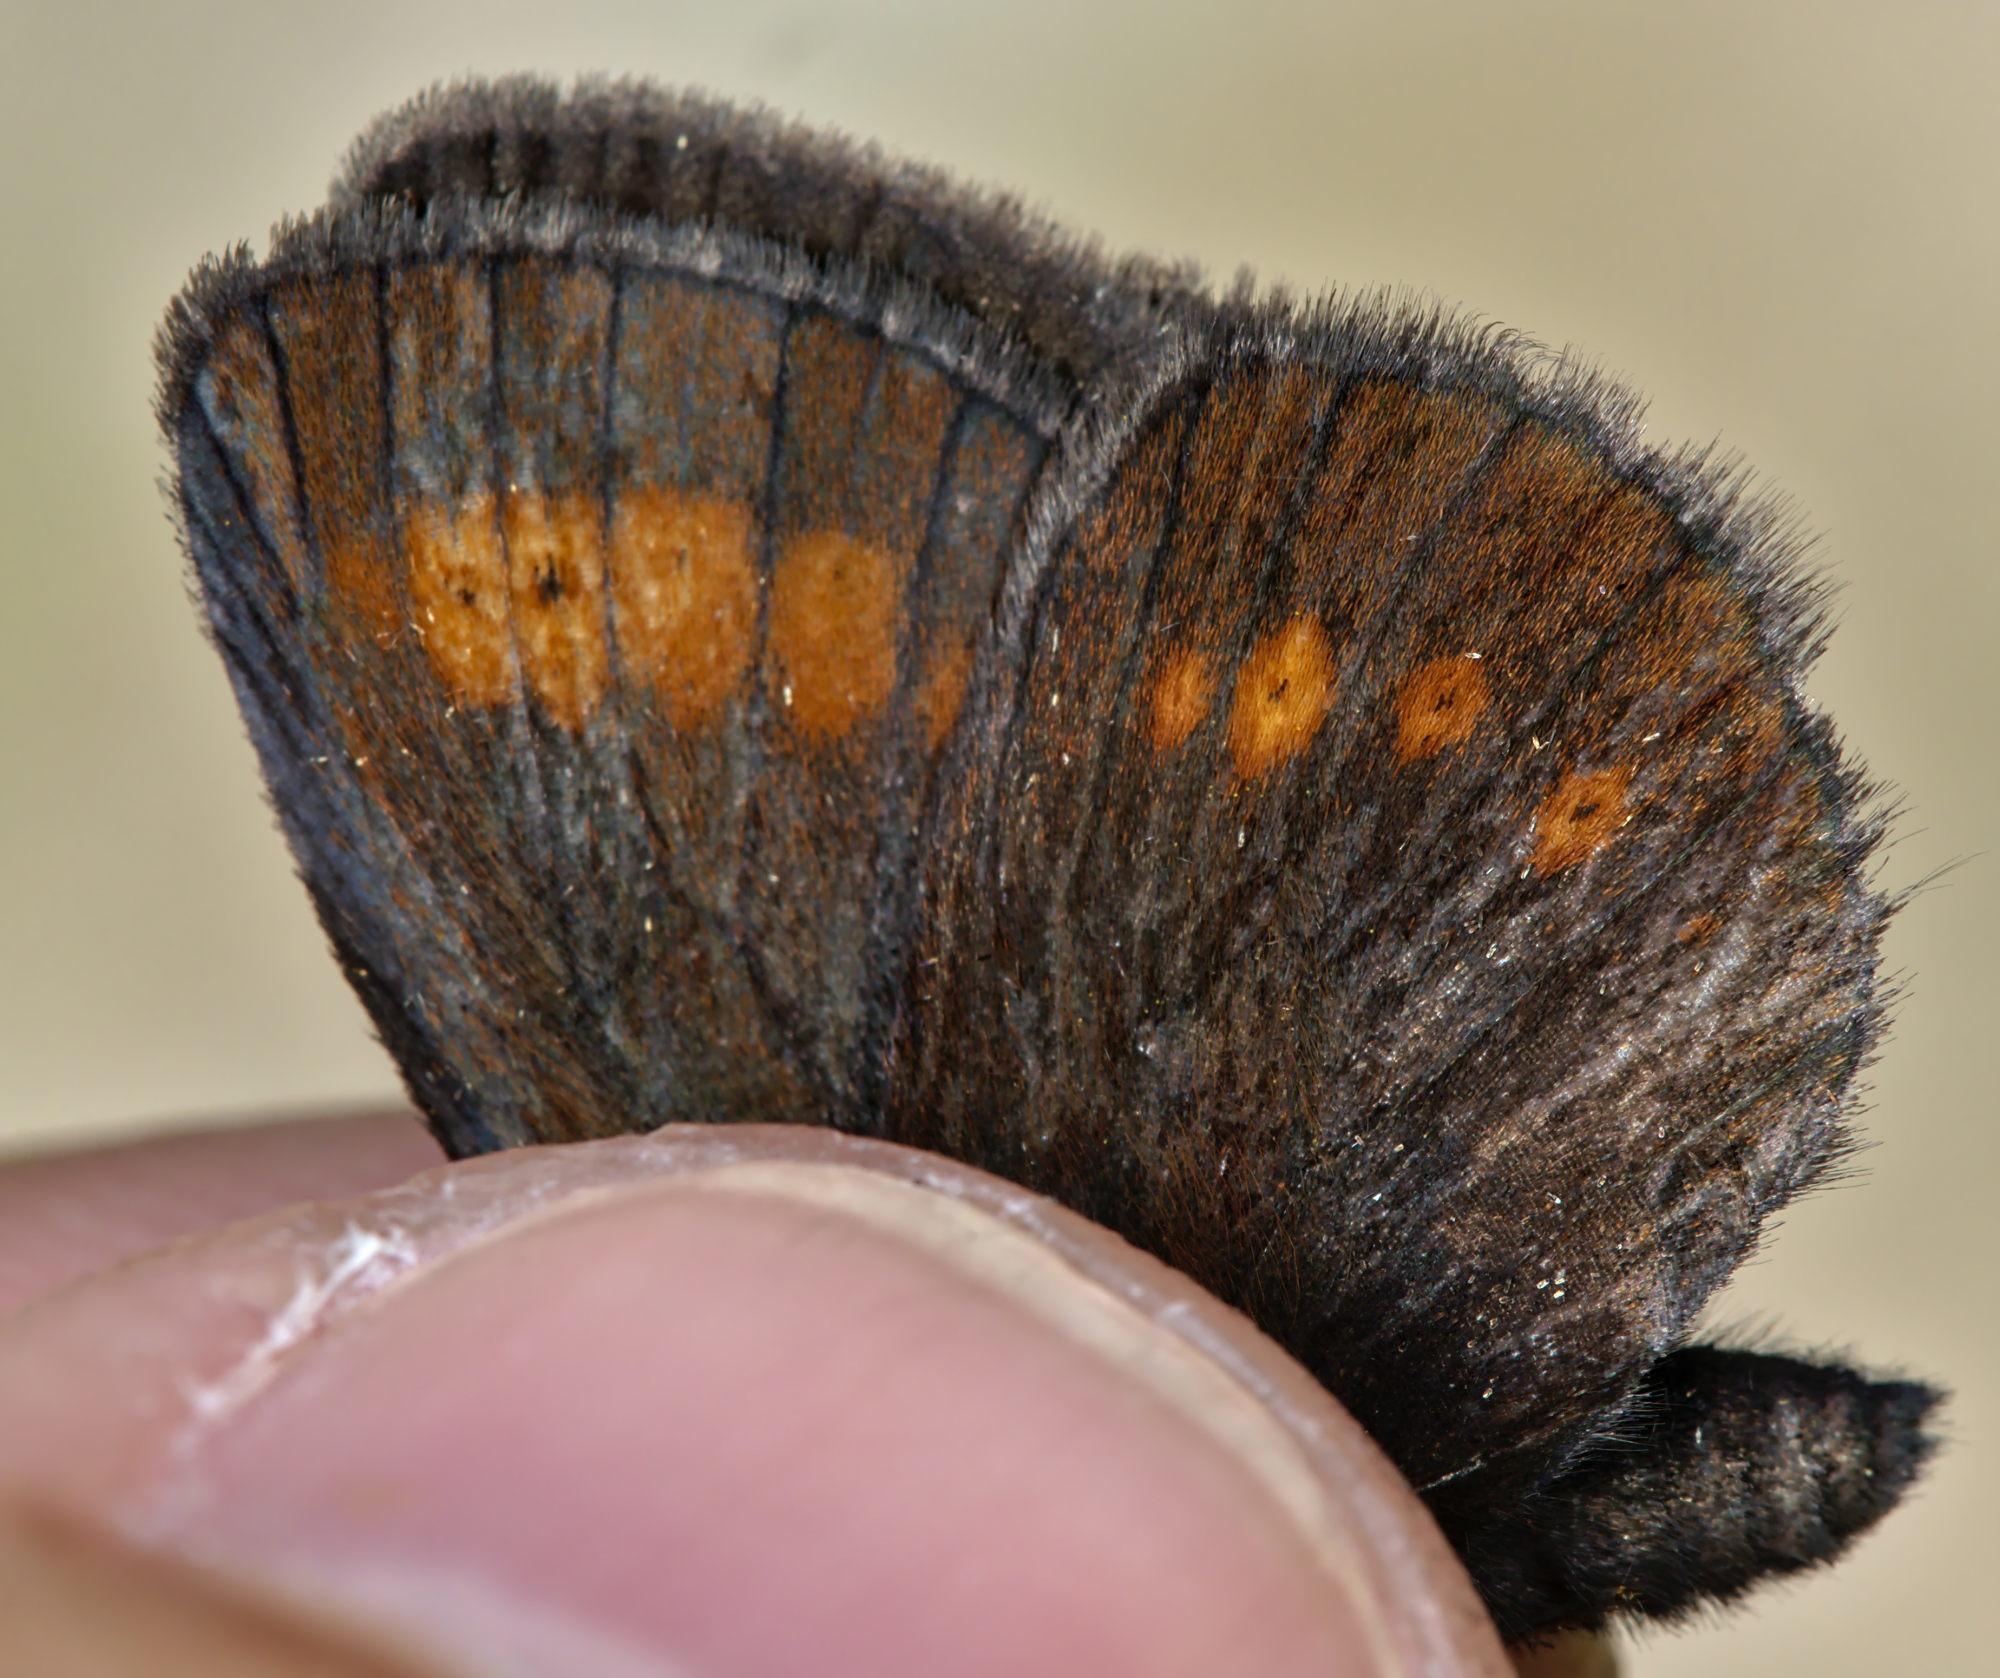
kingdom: Animalia
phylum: Arthropoda
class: Insecta
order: Lepidoptera
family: Nymphalidae
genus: Erebia
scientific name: Erebia melampus
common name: Lesser mountain ringlet
